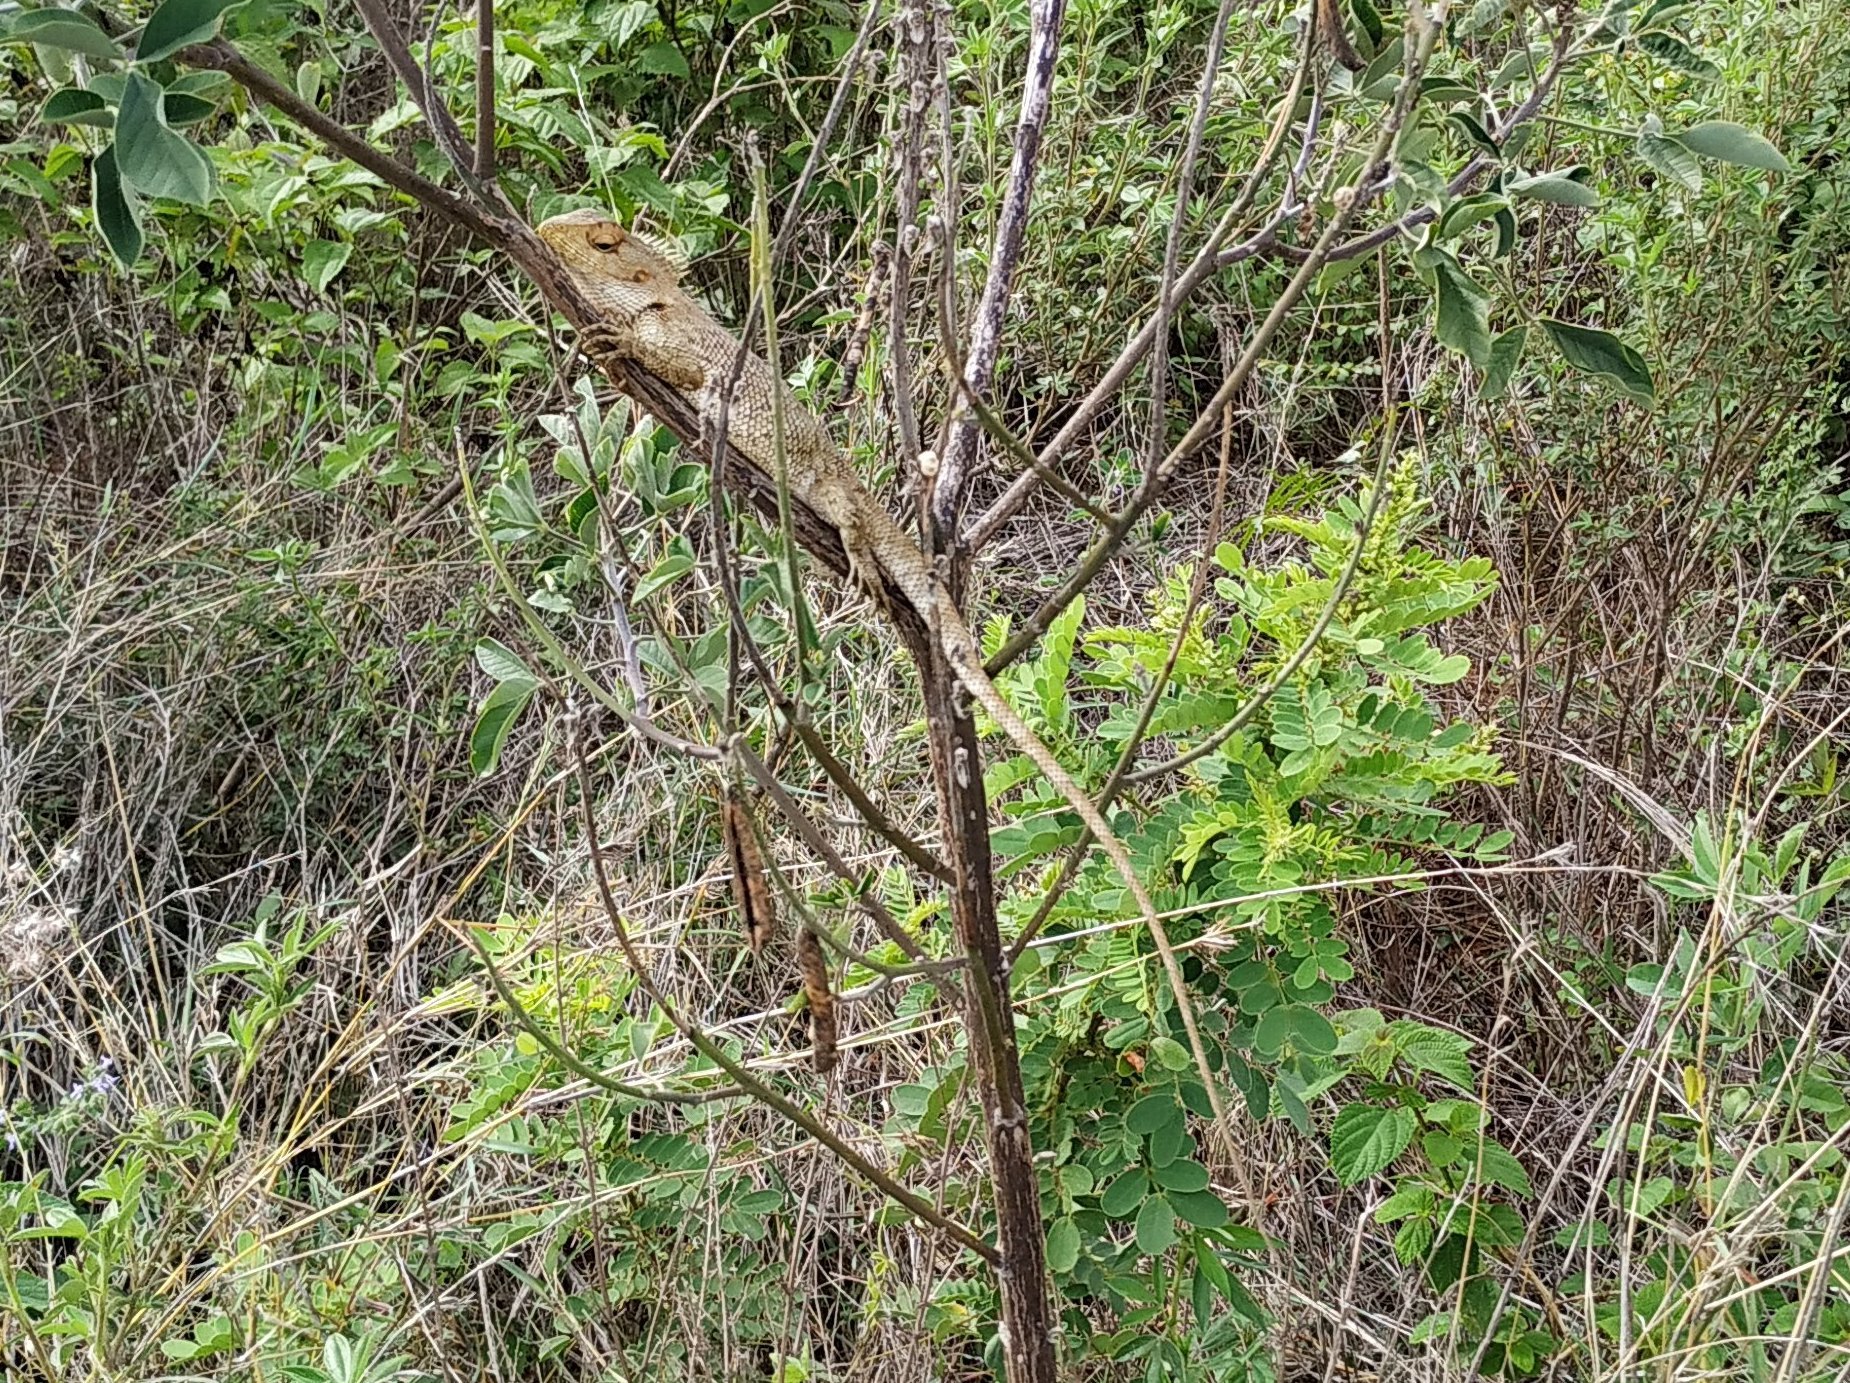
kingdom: Animalia
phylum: Chordata
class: Squamata
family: Agamidae
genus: Calotes
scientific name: Calotes versicolor
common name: Oriental garden lizard
